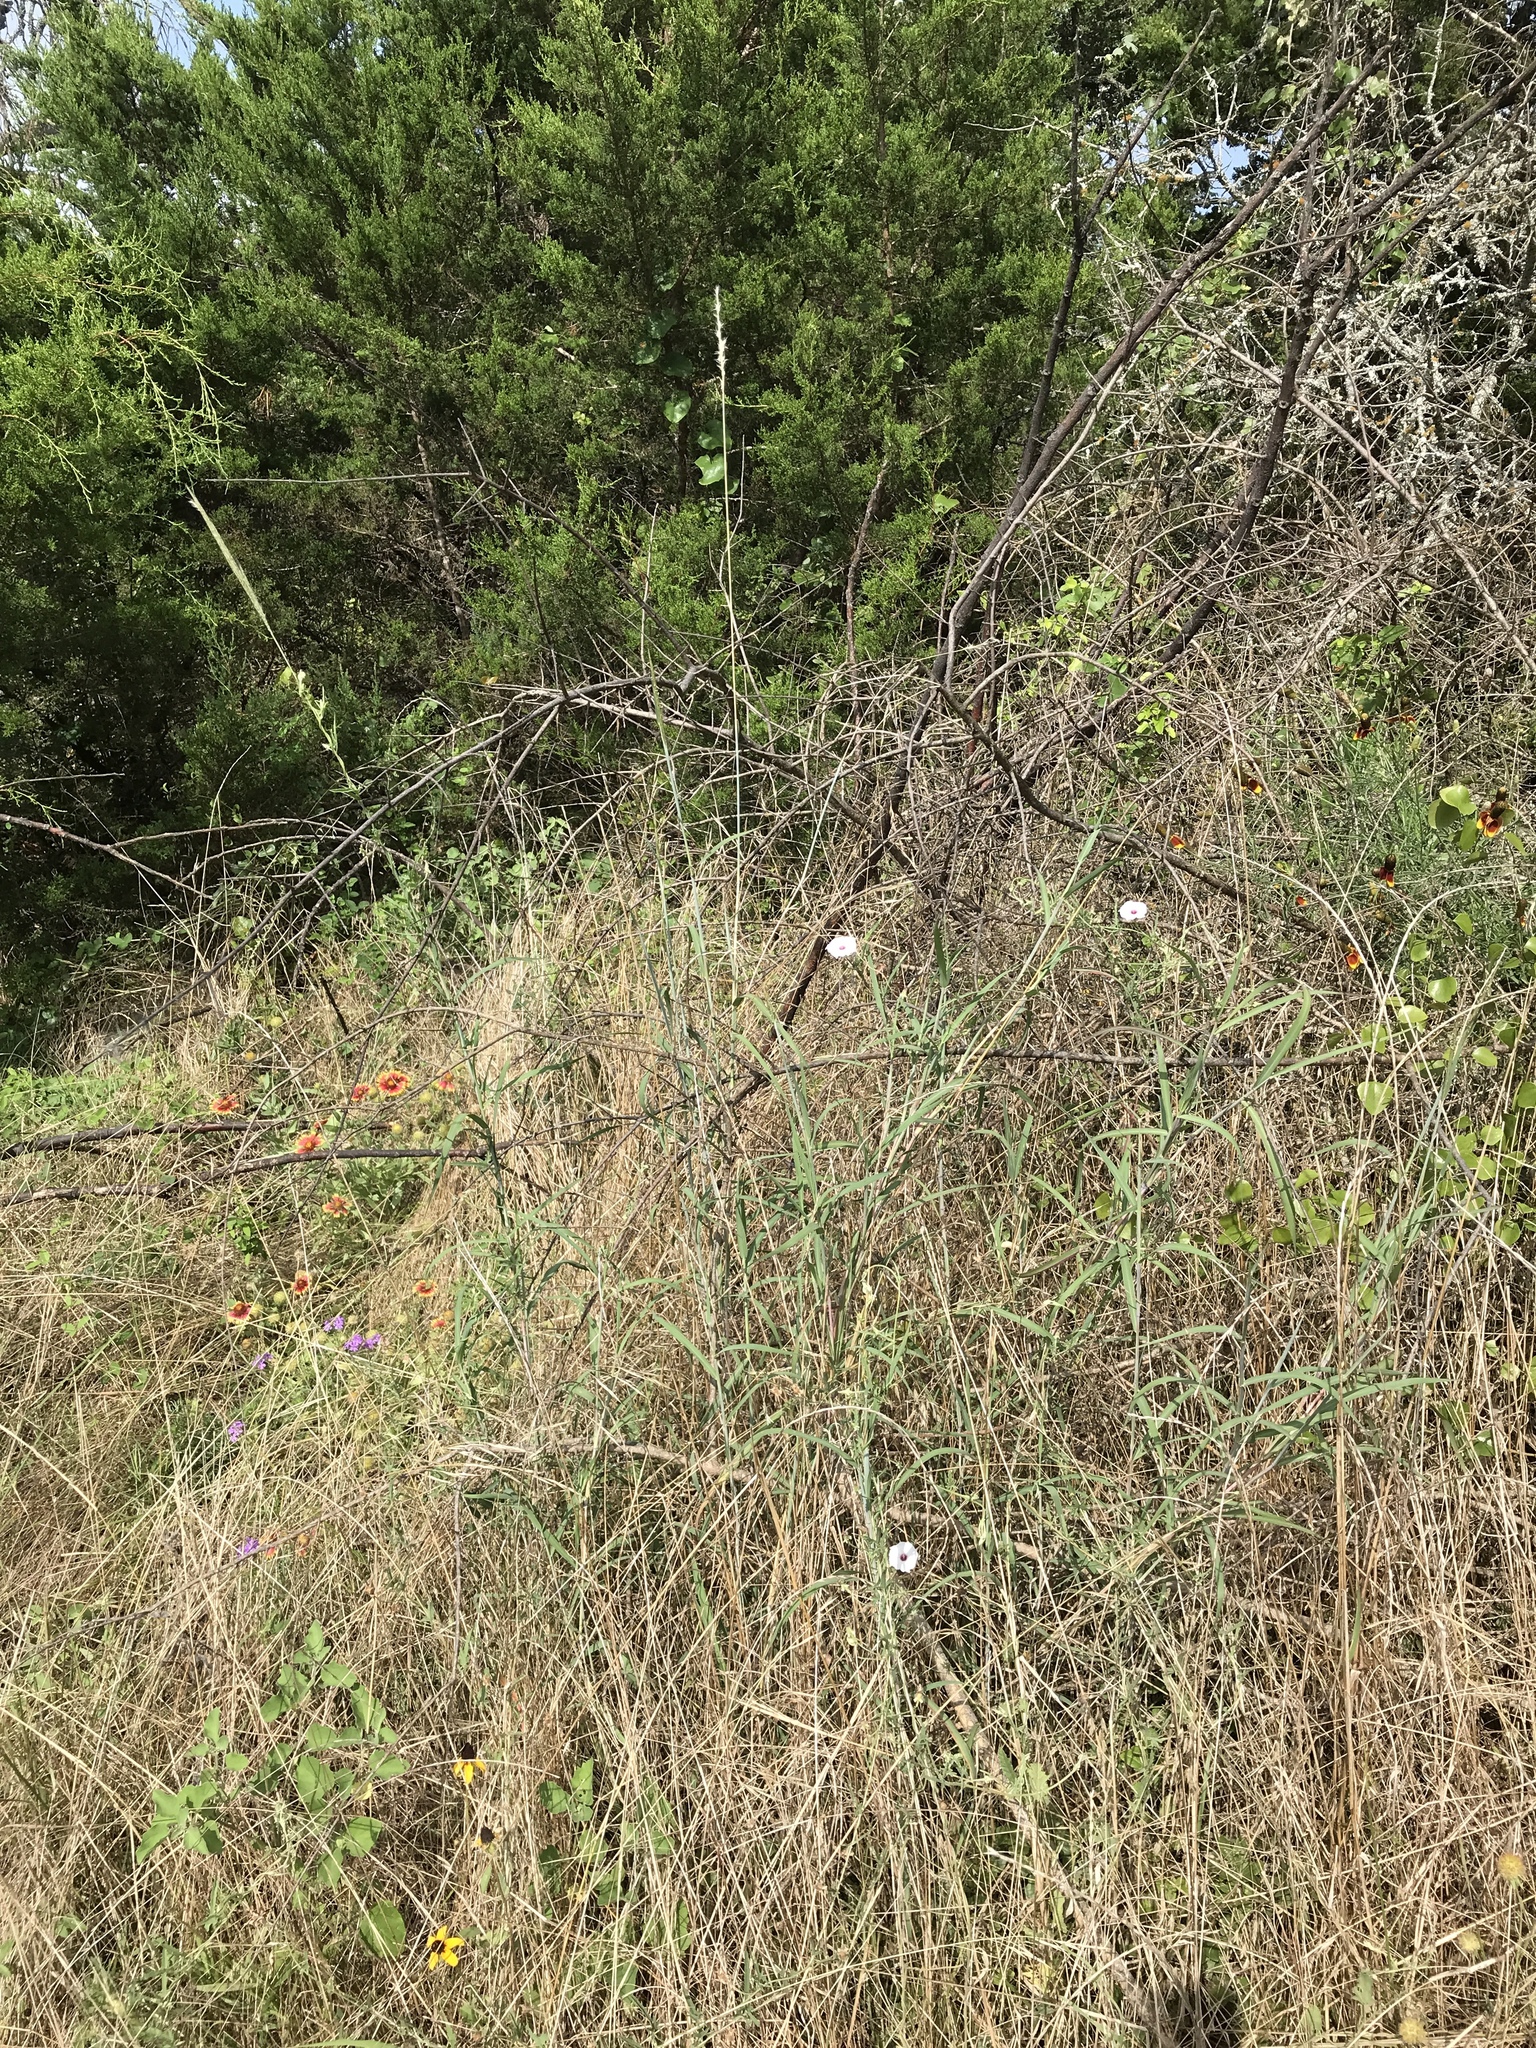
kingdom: Plantae
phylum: Tracheophyta
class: Liliopsida
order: Poales
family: Poaceae
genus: Bothriochloa
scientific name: Bothriochloa torreyana
